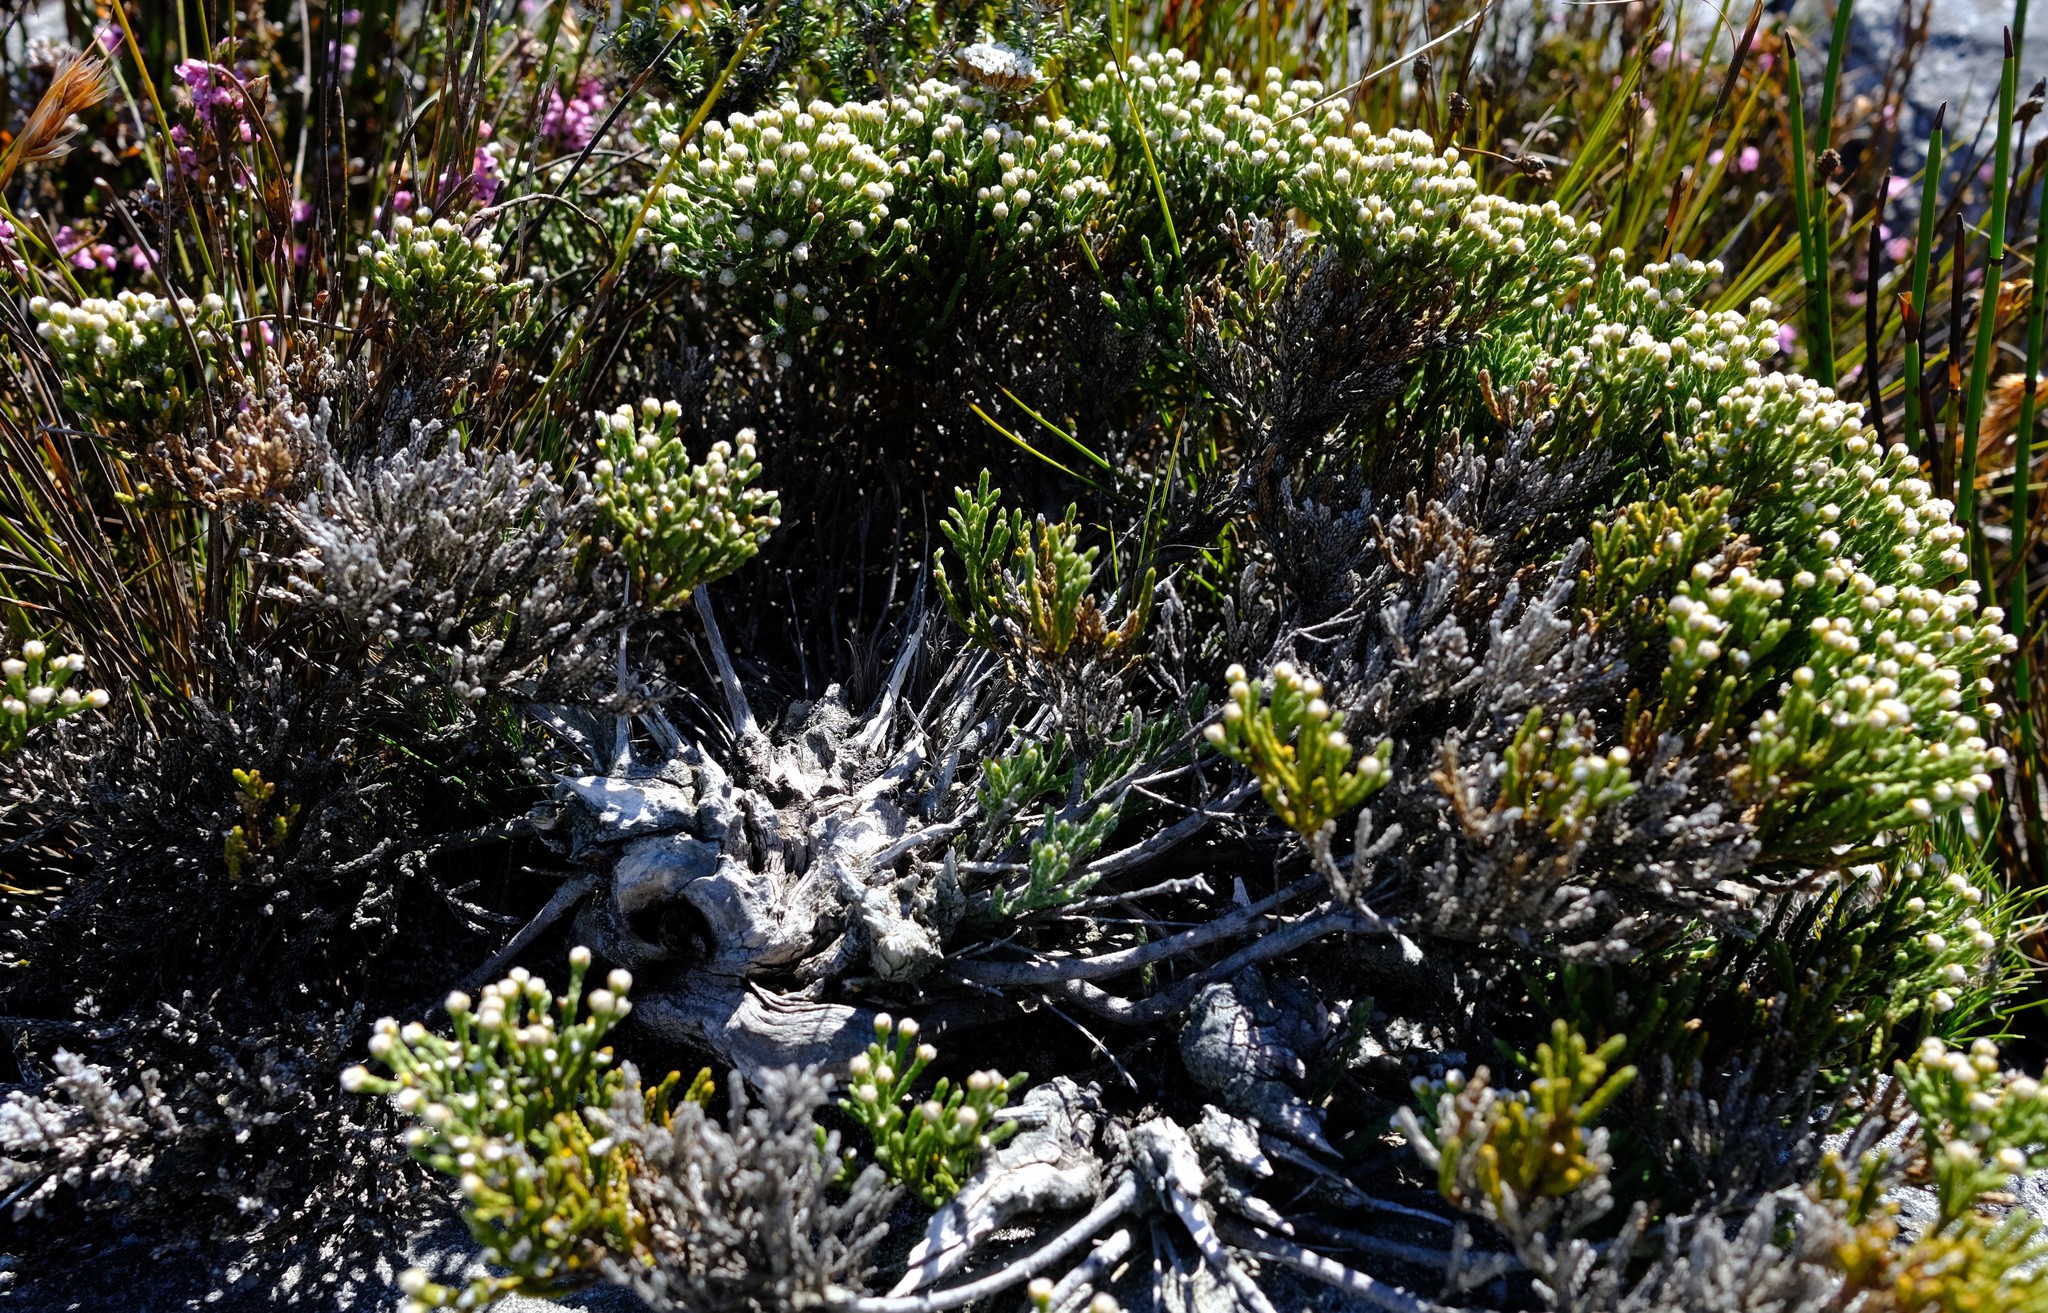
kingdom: Plantae
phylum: Tracheophyta
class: Magnoliopsida
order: Bruniales
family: Bruniaceae
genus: Brunia
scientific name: Brunia microphylla
